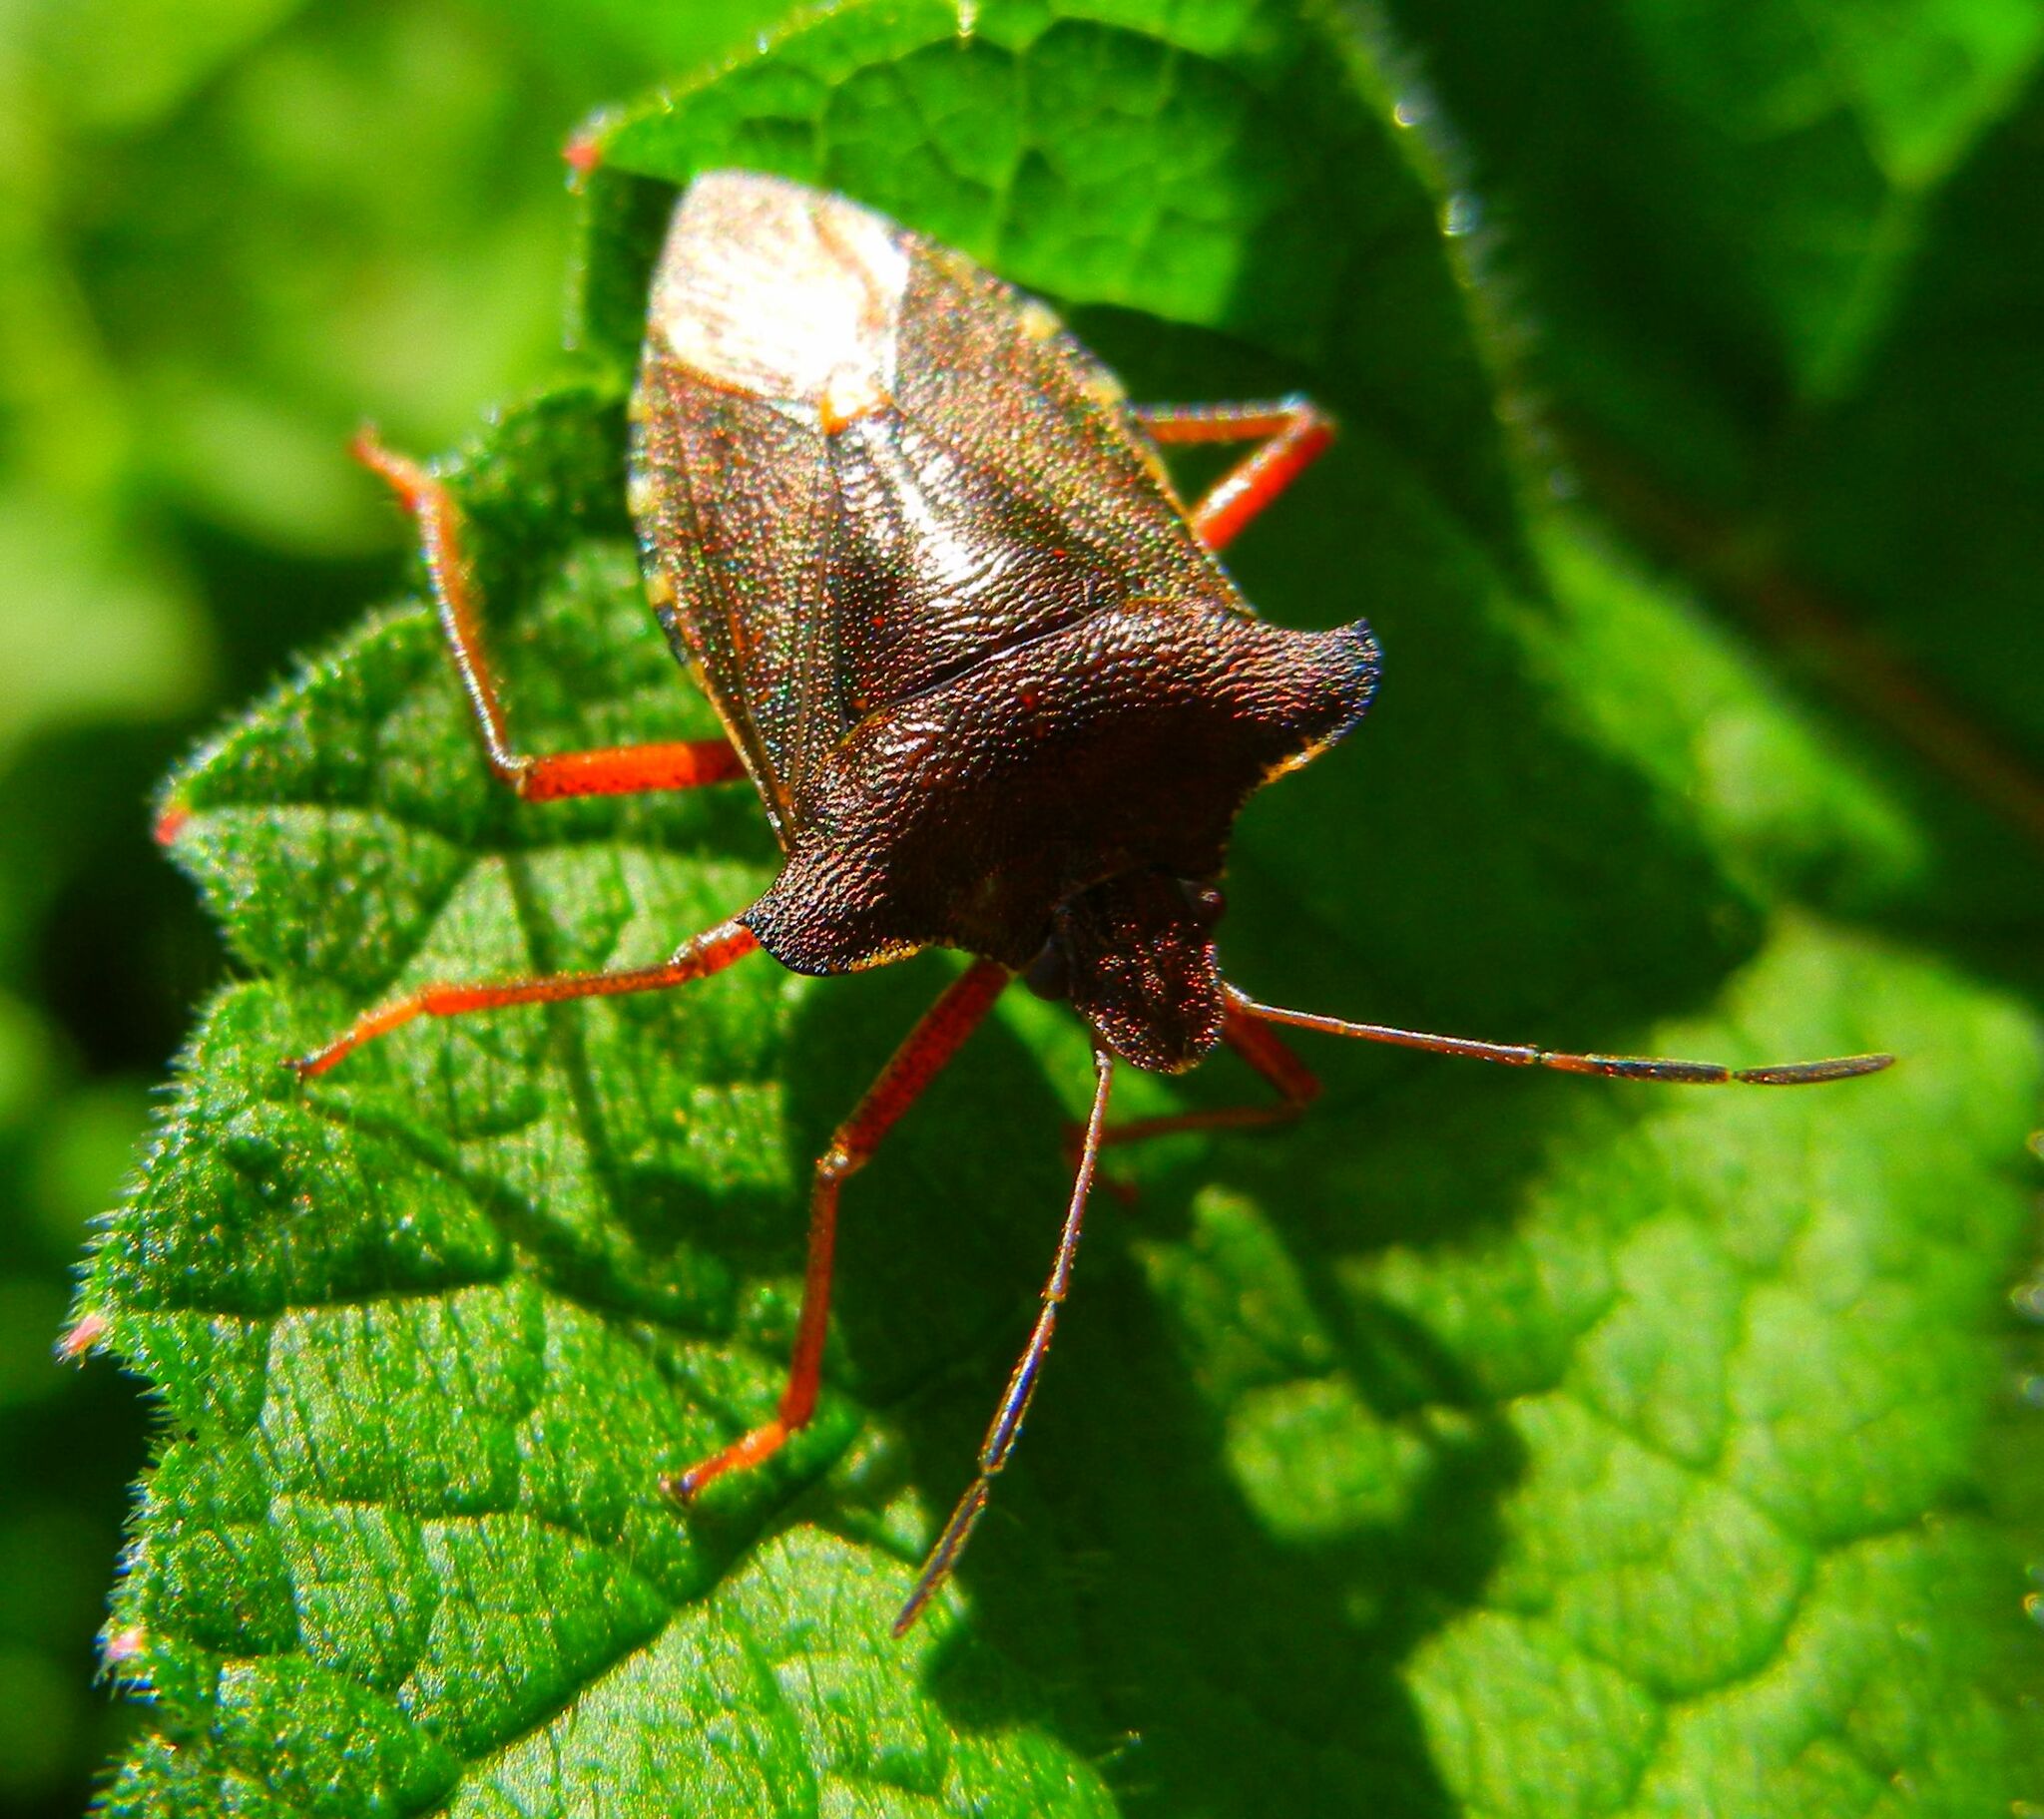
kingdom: Animalia
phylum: Arthropoda
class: Insecta
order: Hemiptera
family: Pentatomidae
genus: Pentatoma
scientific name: Pentatoma rufipes
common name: Forest bug
